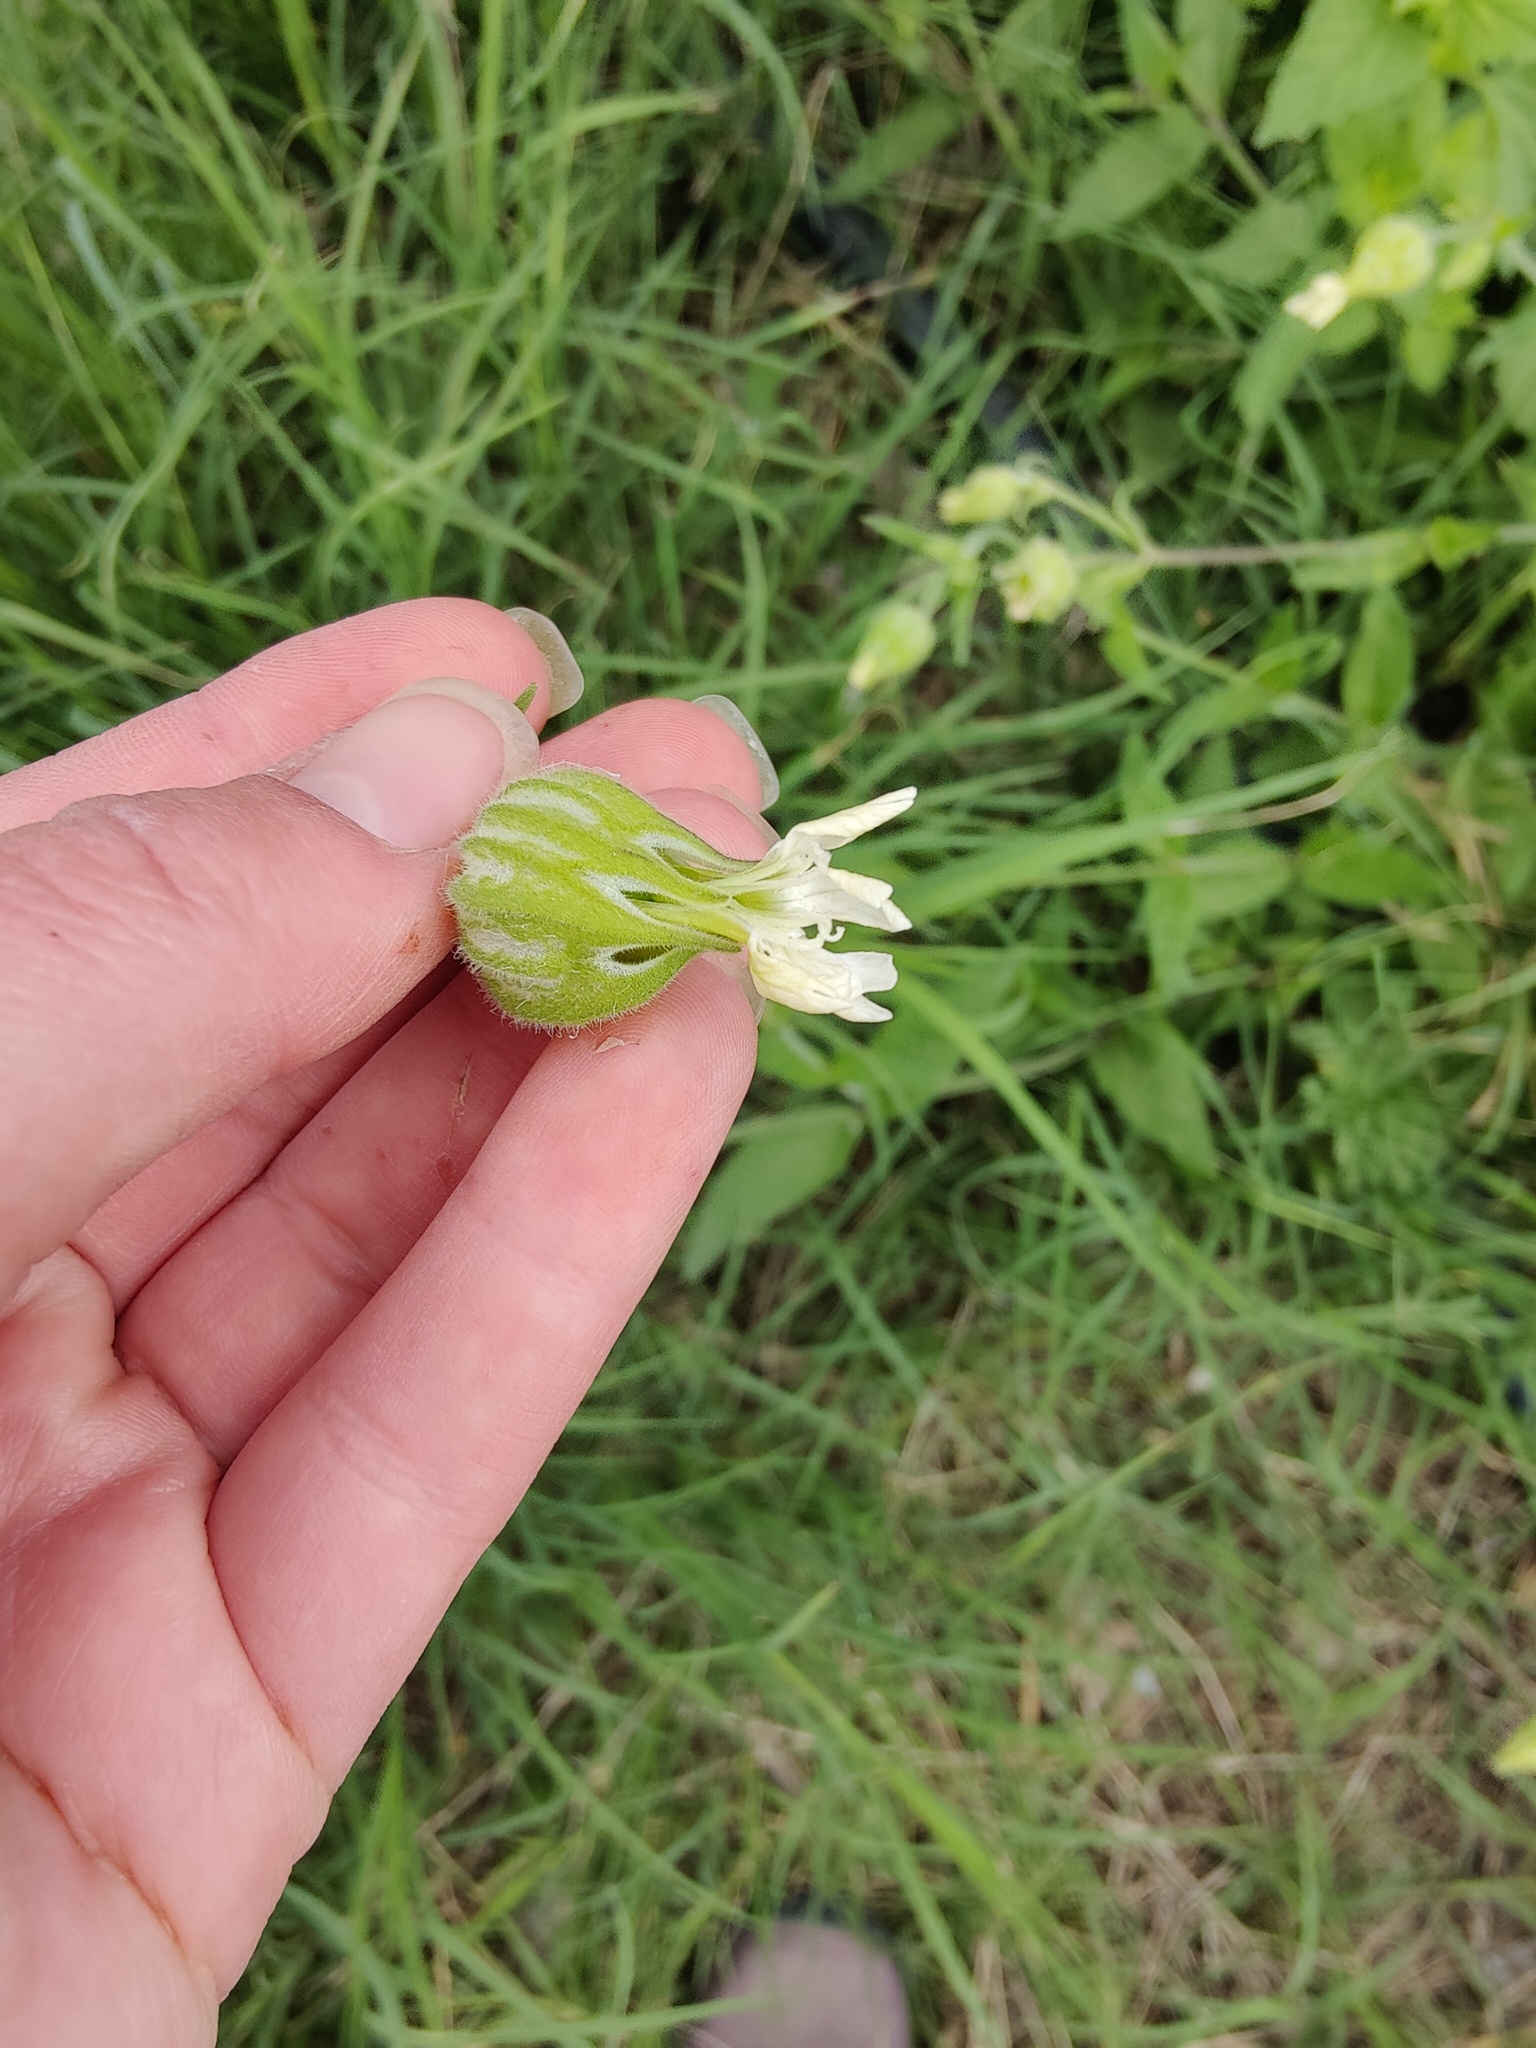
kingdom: Plantae
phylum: Tracheophyta
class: Magnoliopsida
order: Caryophyllales
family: Caryophyllaceae
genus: Silene
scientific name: Silene latifolia
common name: White campion
